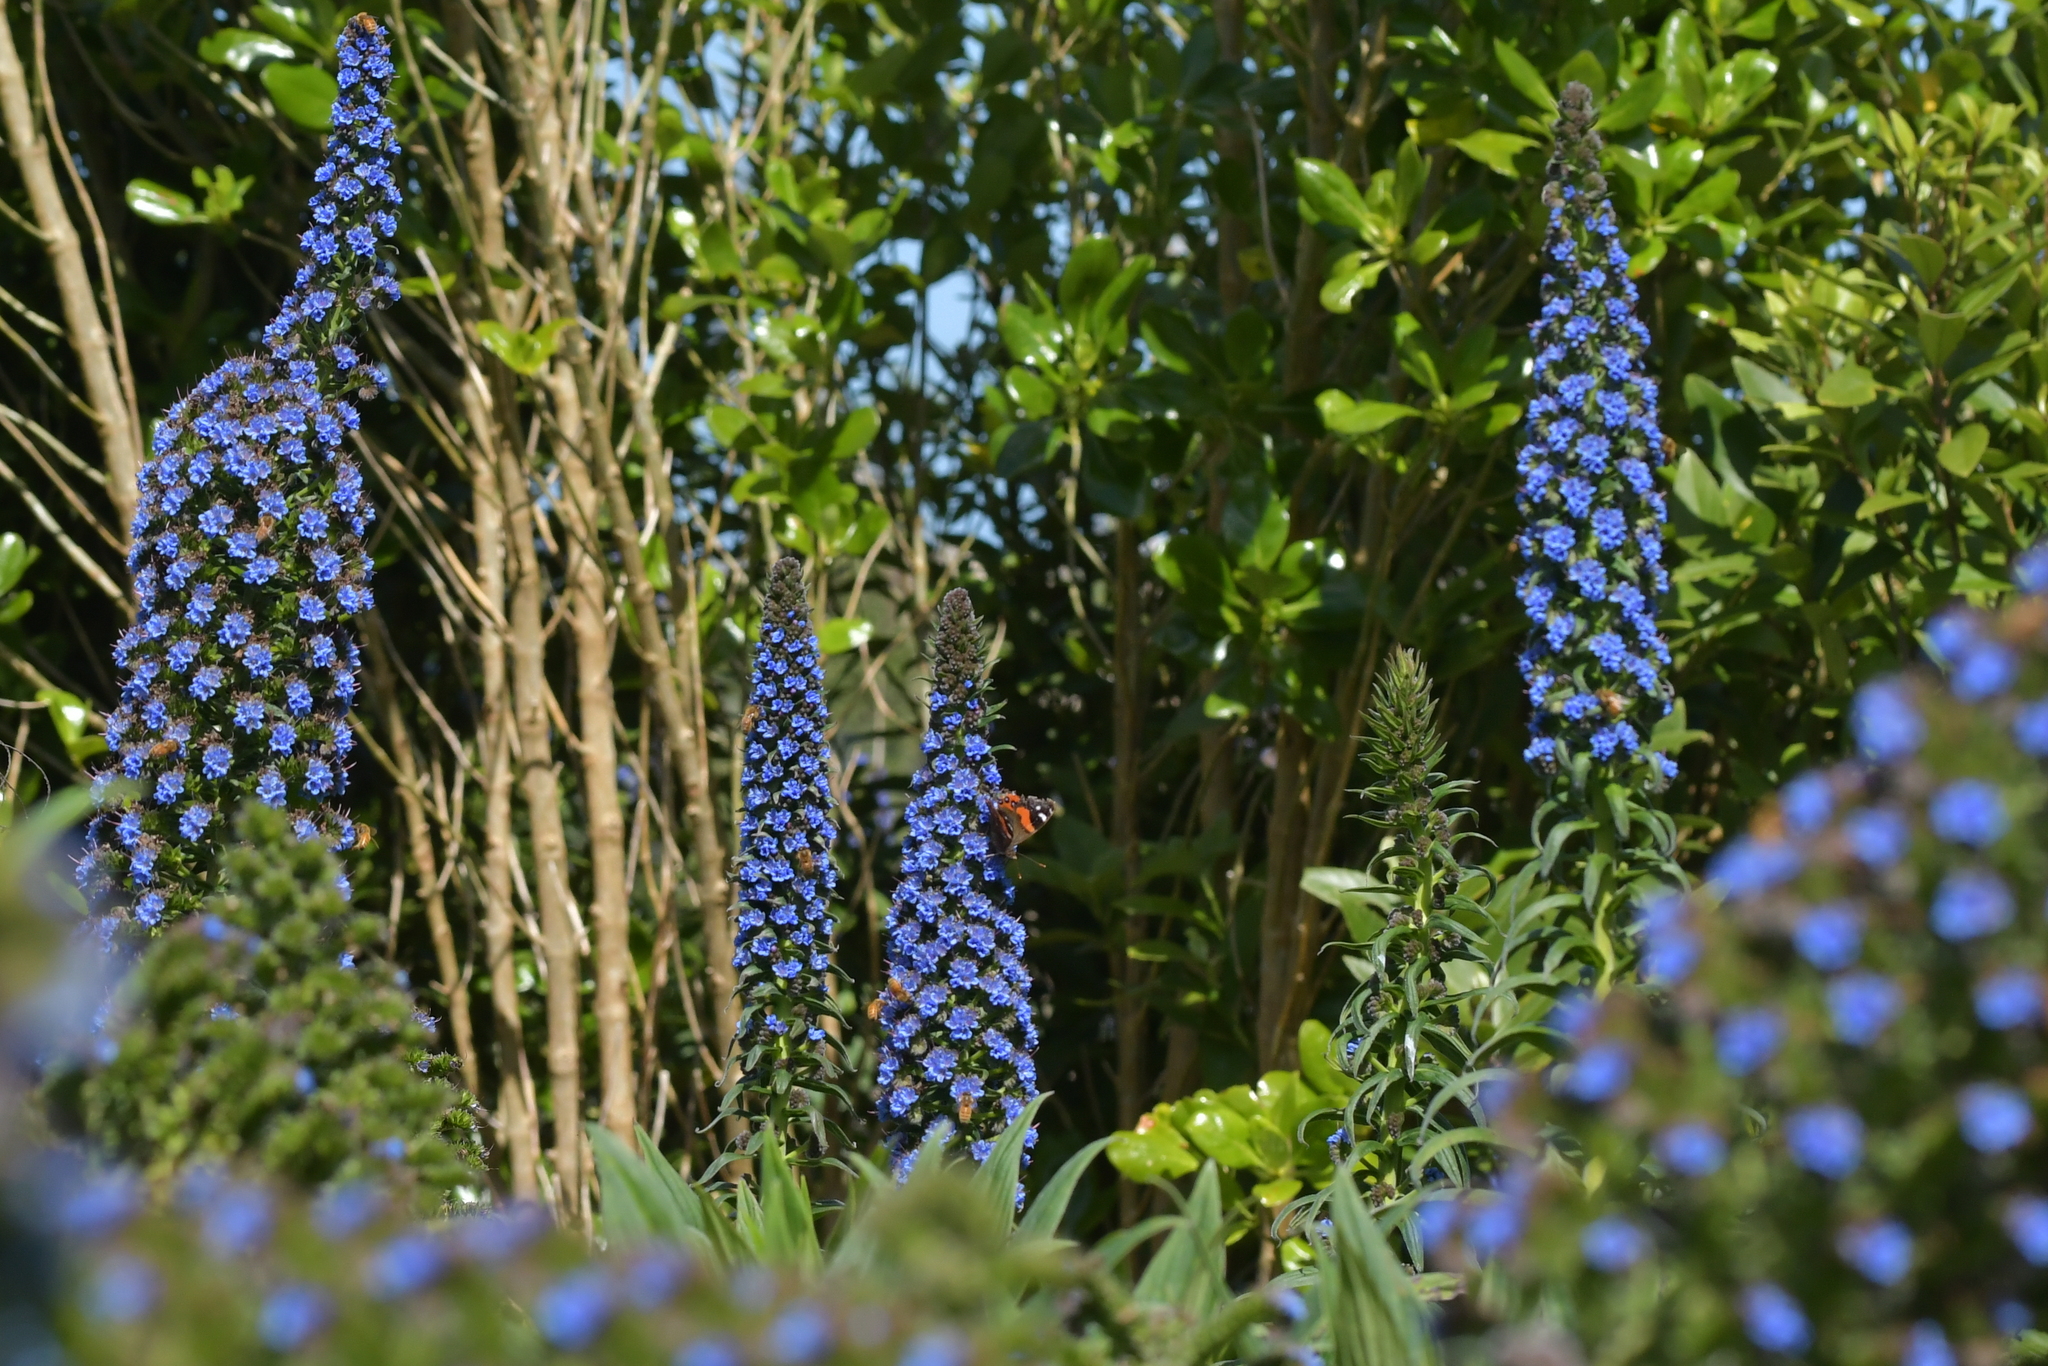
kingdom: Animalia
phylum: Arthropoda
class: Insecta
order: Lepidoptera
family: Nymphalidae
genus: Vanessa
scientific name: Vanessa gonerilla
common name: New zealand red admiral
